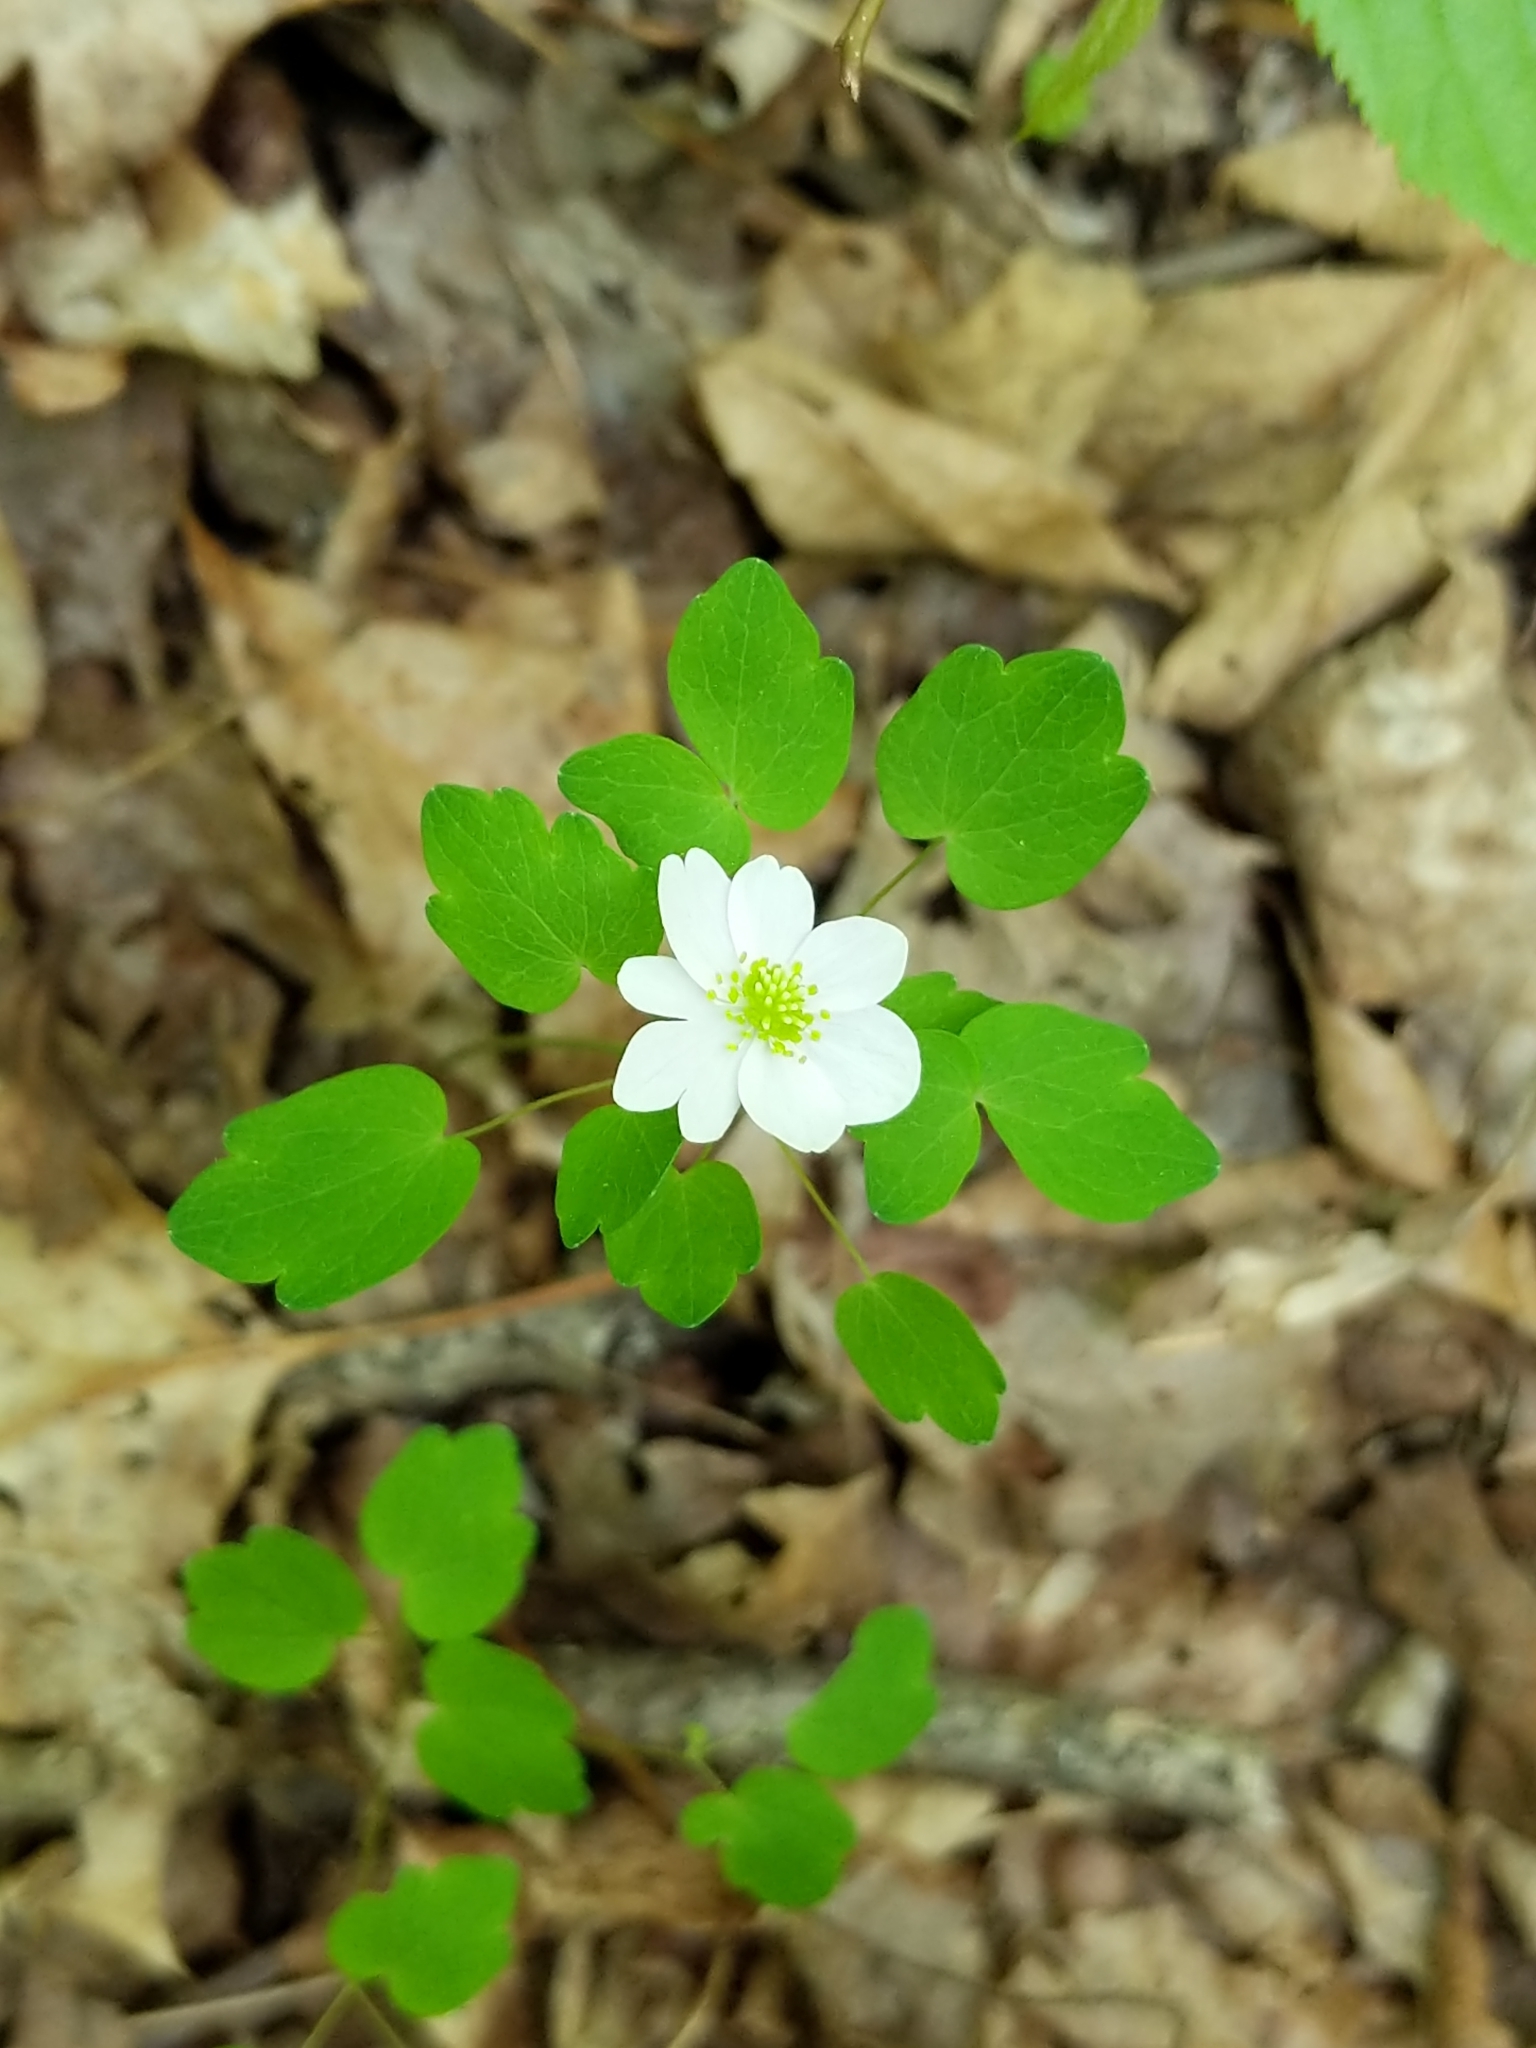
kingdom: Plantae
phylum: Tracheophyta
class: Magnoliopsida
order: Ranunculales
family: Ranunculaceae
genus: Thalictrum
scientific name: Thalictrum thalictroides
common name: Rue-anemone
